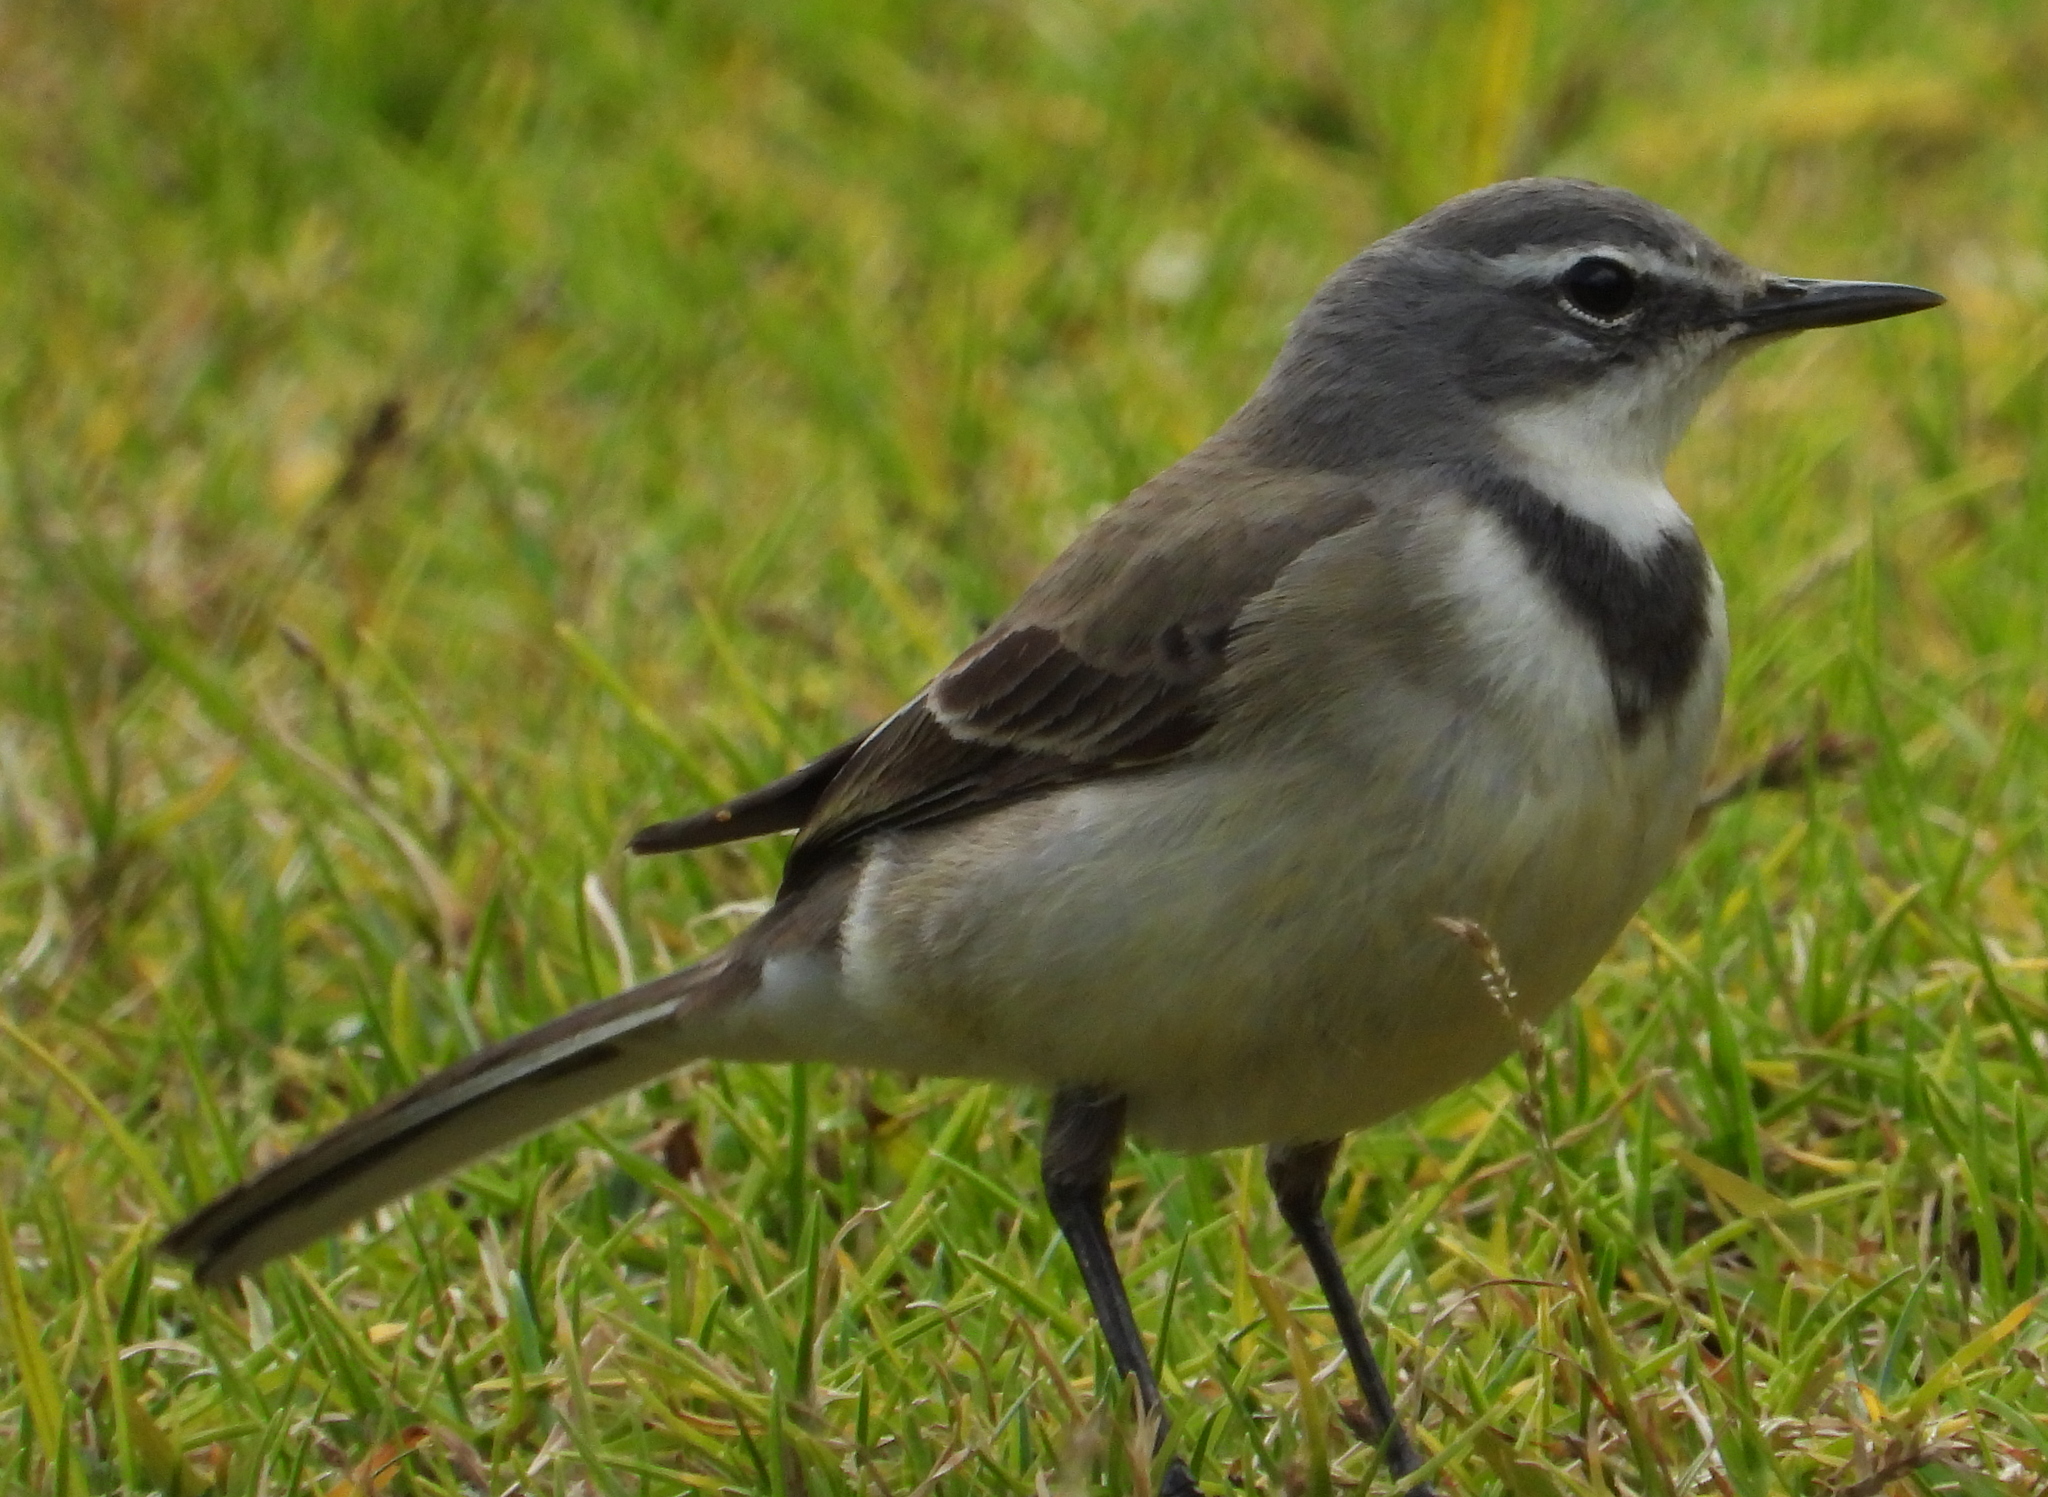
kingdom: Animalia
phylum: Chordata
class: Aves
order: Passeriformes
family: Motacillidae
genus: Motacilla
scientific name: Motacilla capensis
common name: Cape wagtail
